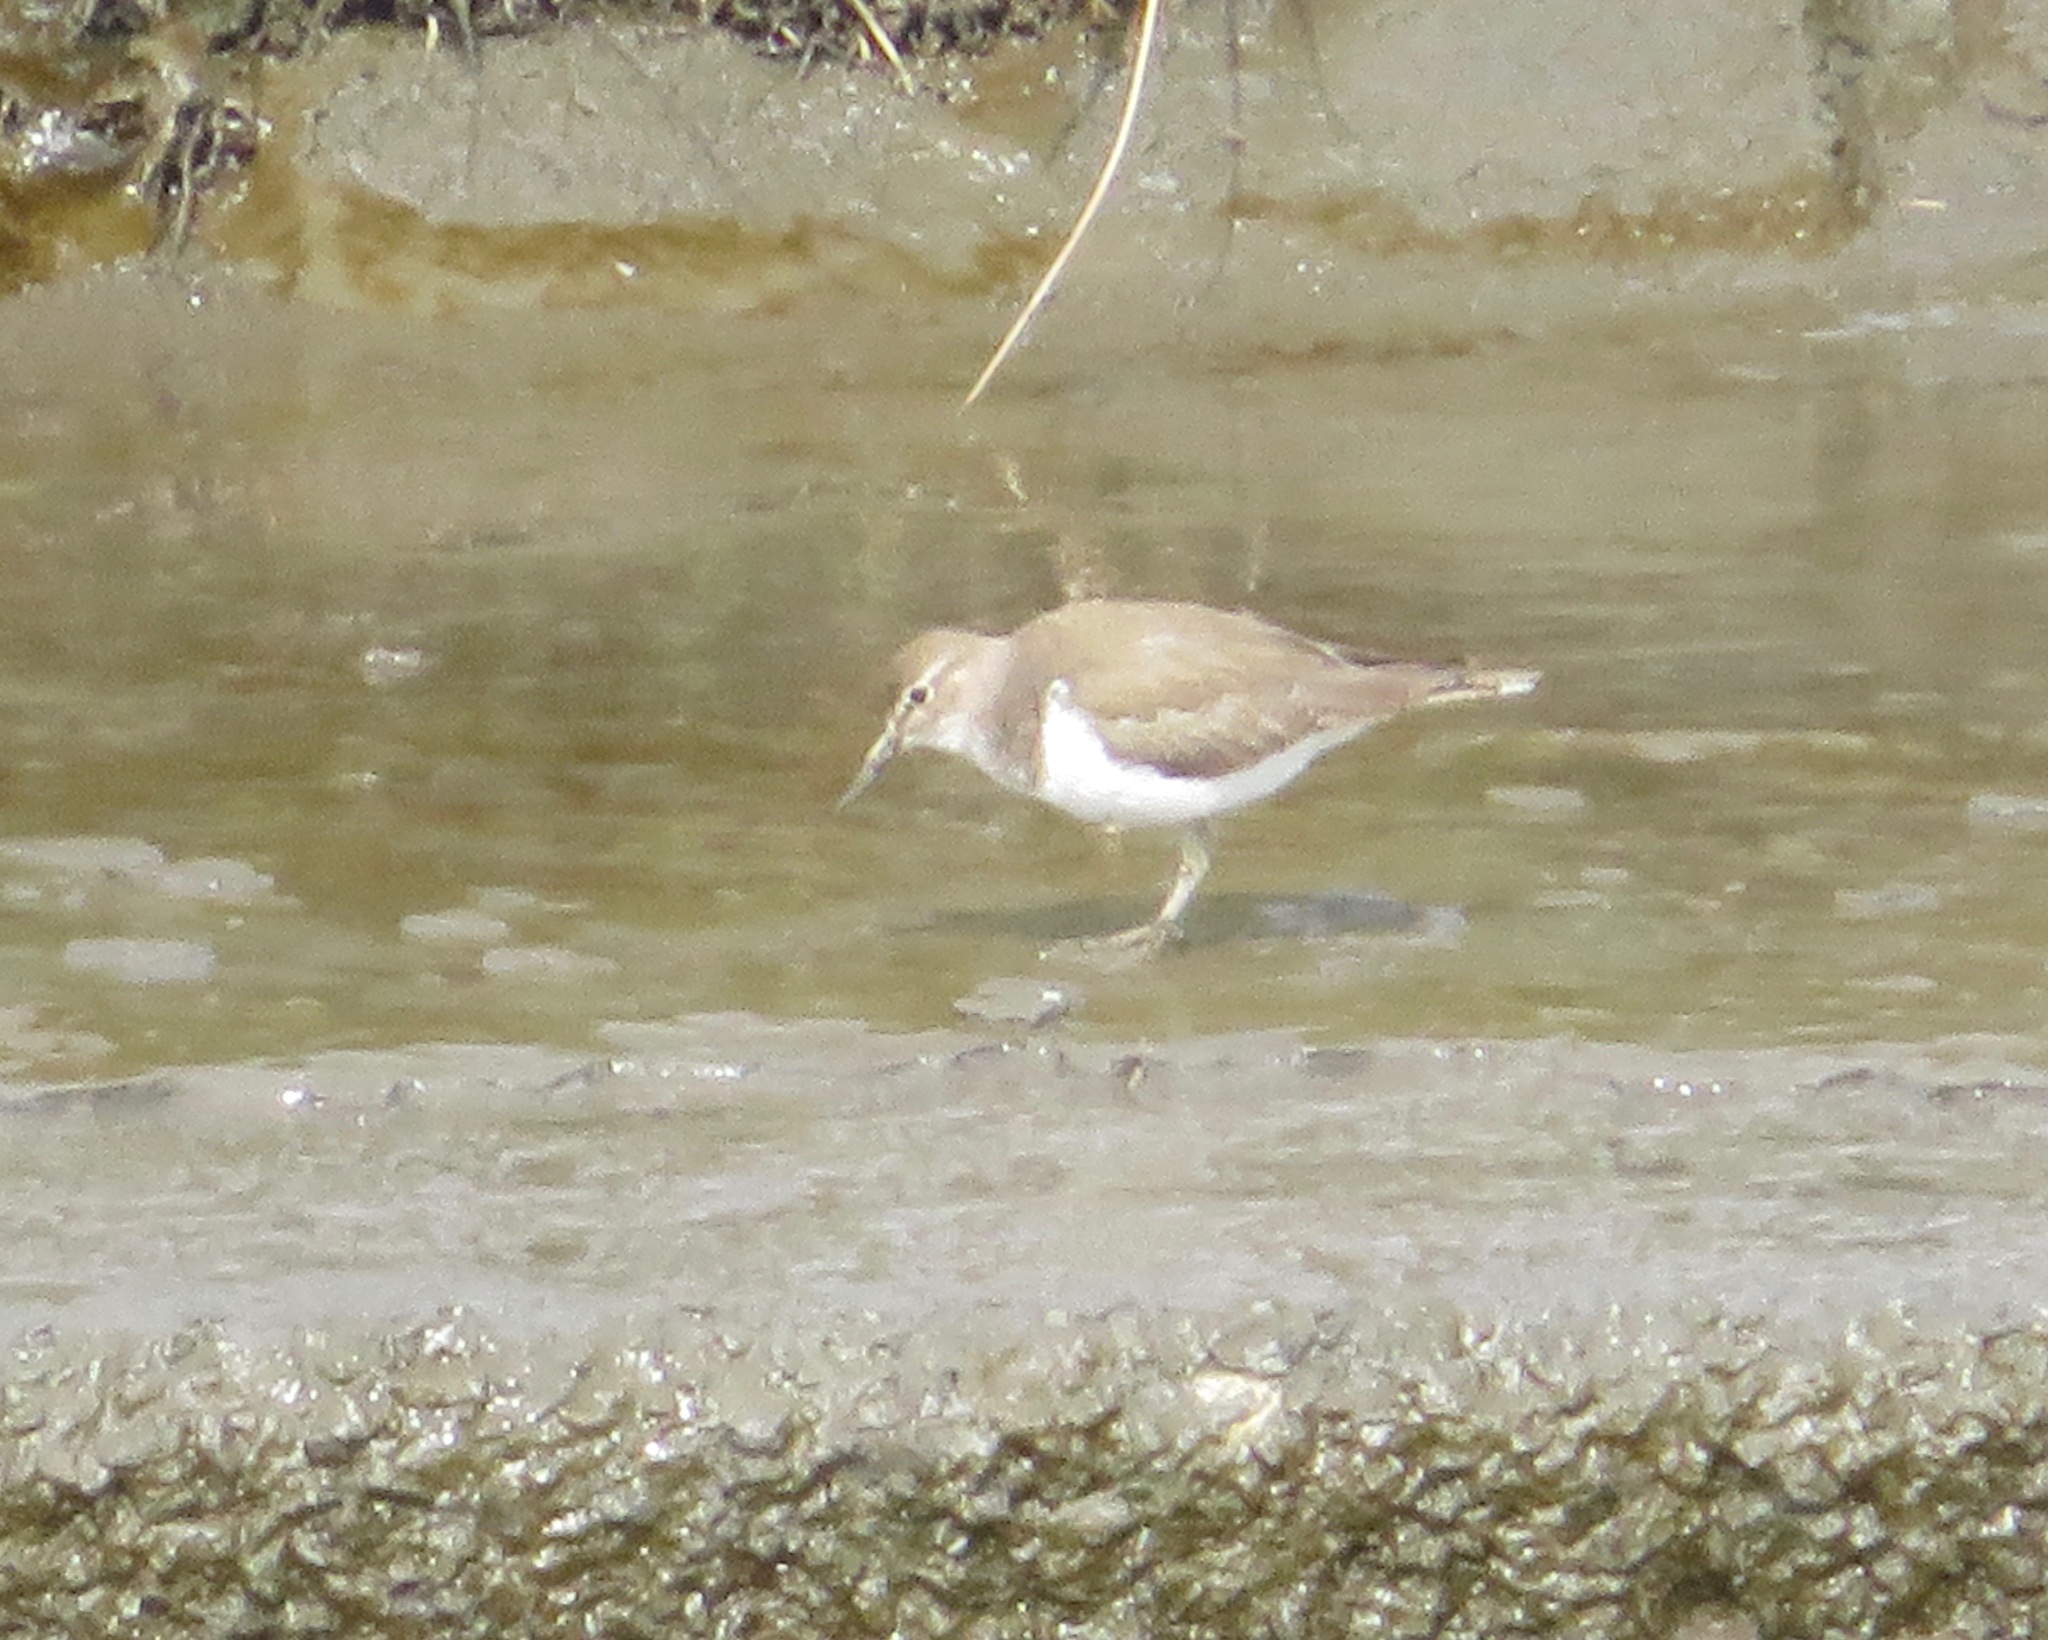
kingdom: Animalia
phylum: Chordata
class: Aves
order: Charadriiformes
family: Scolopacidae
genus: Actitis
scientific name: Actitis hypoleucos
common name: Common sandpiper
